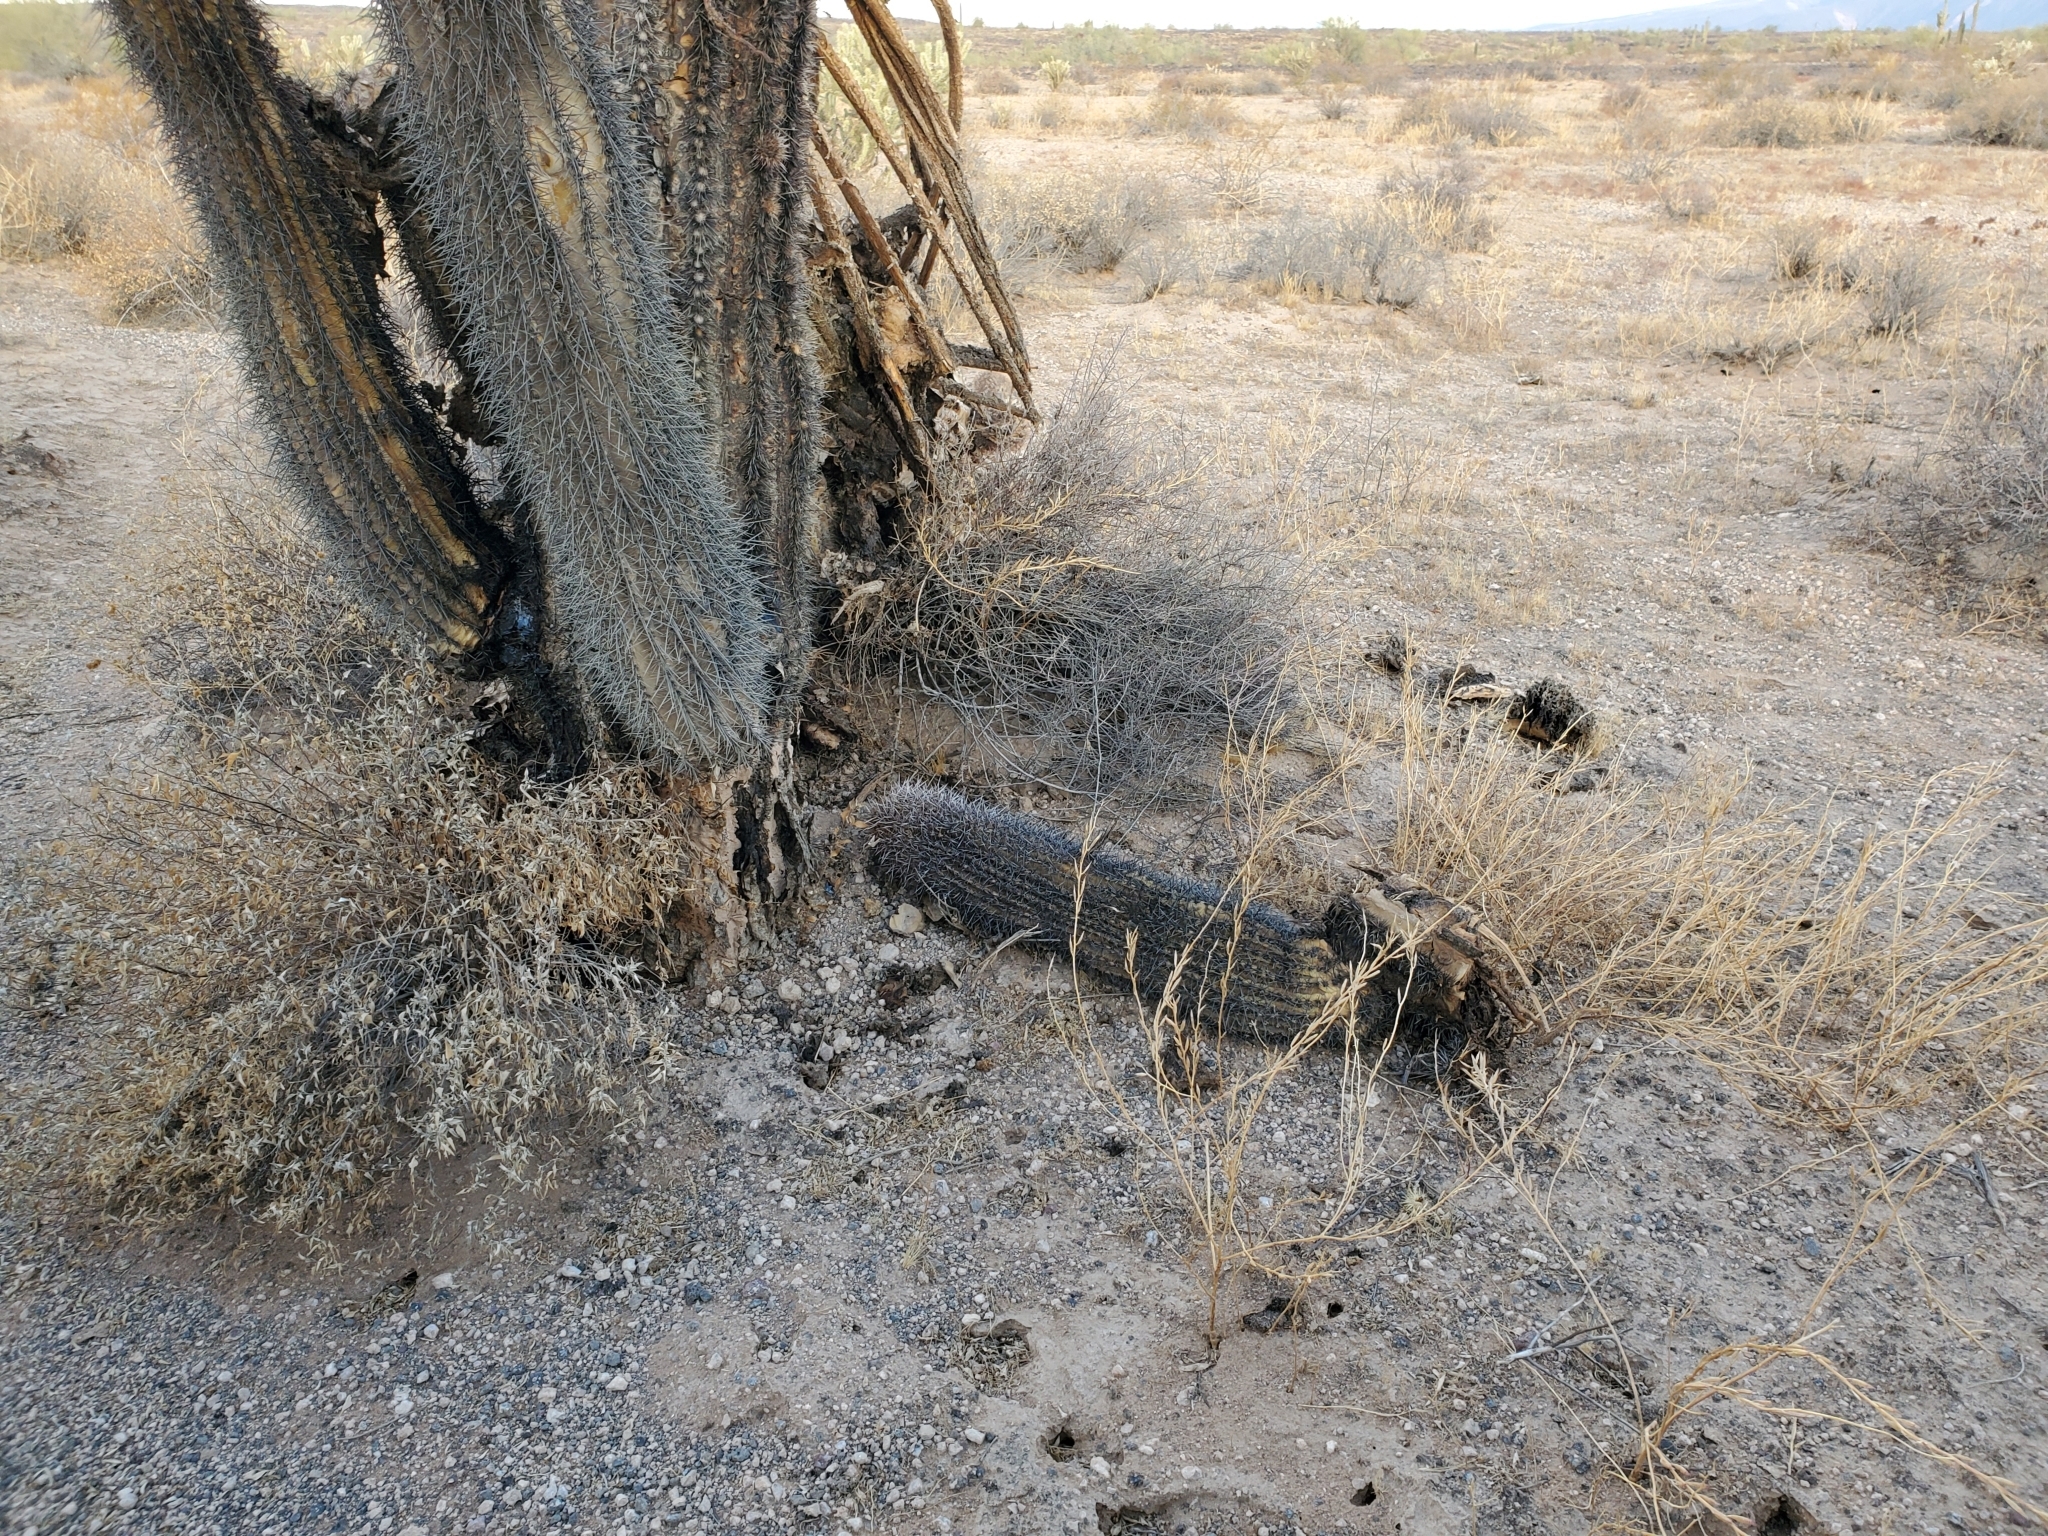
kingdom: Plantae
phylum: Tracheophyta
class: Magnoliopsida
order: Caryophyllales
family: Cactaceae
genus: Carnegiea
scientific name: Carnegiea gigantea
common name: Saguaro
